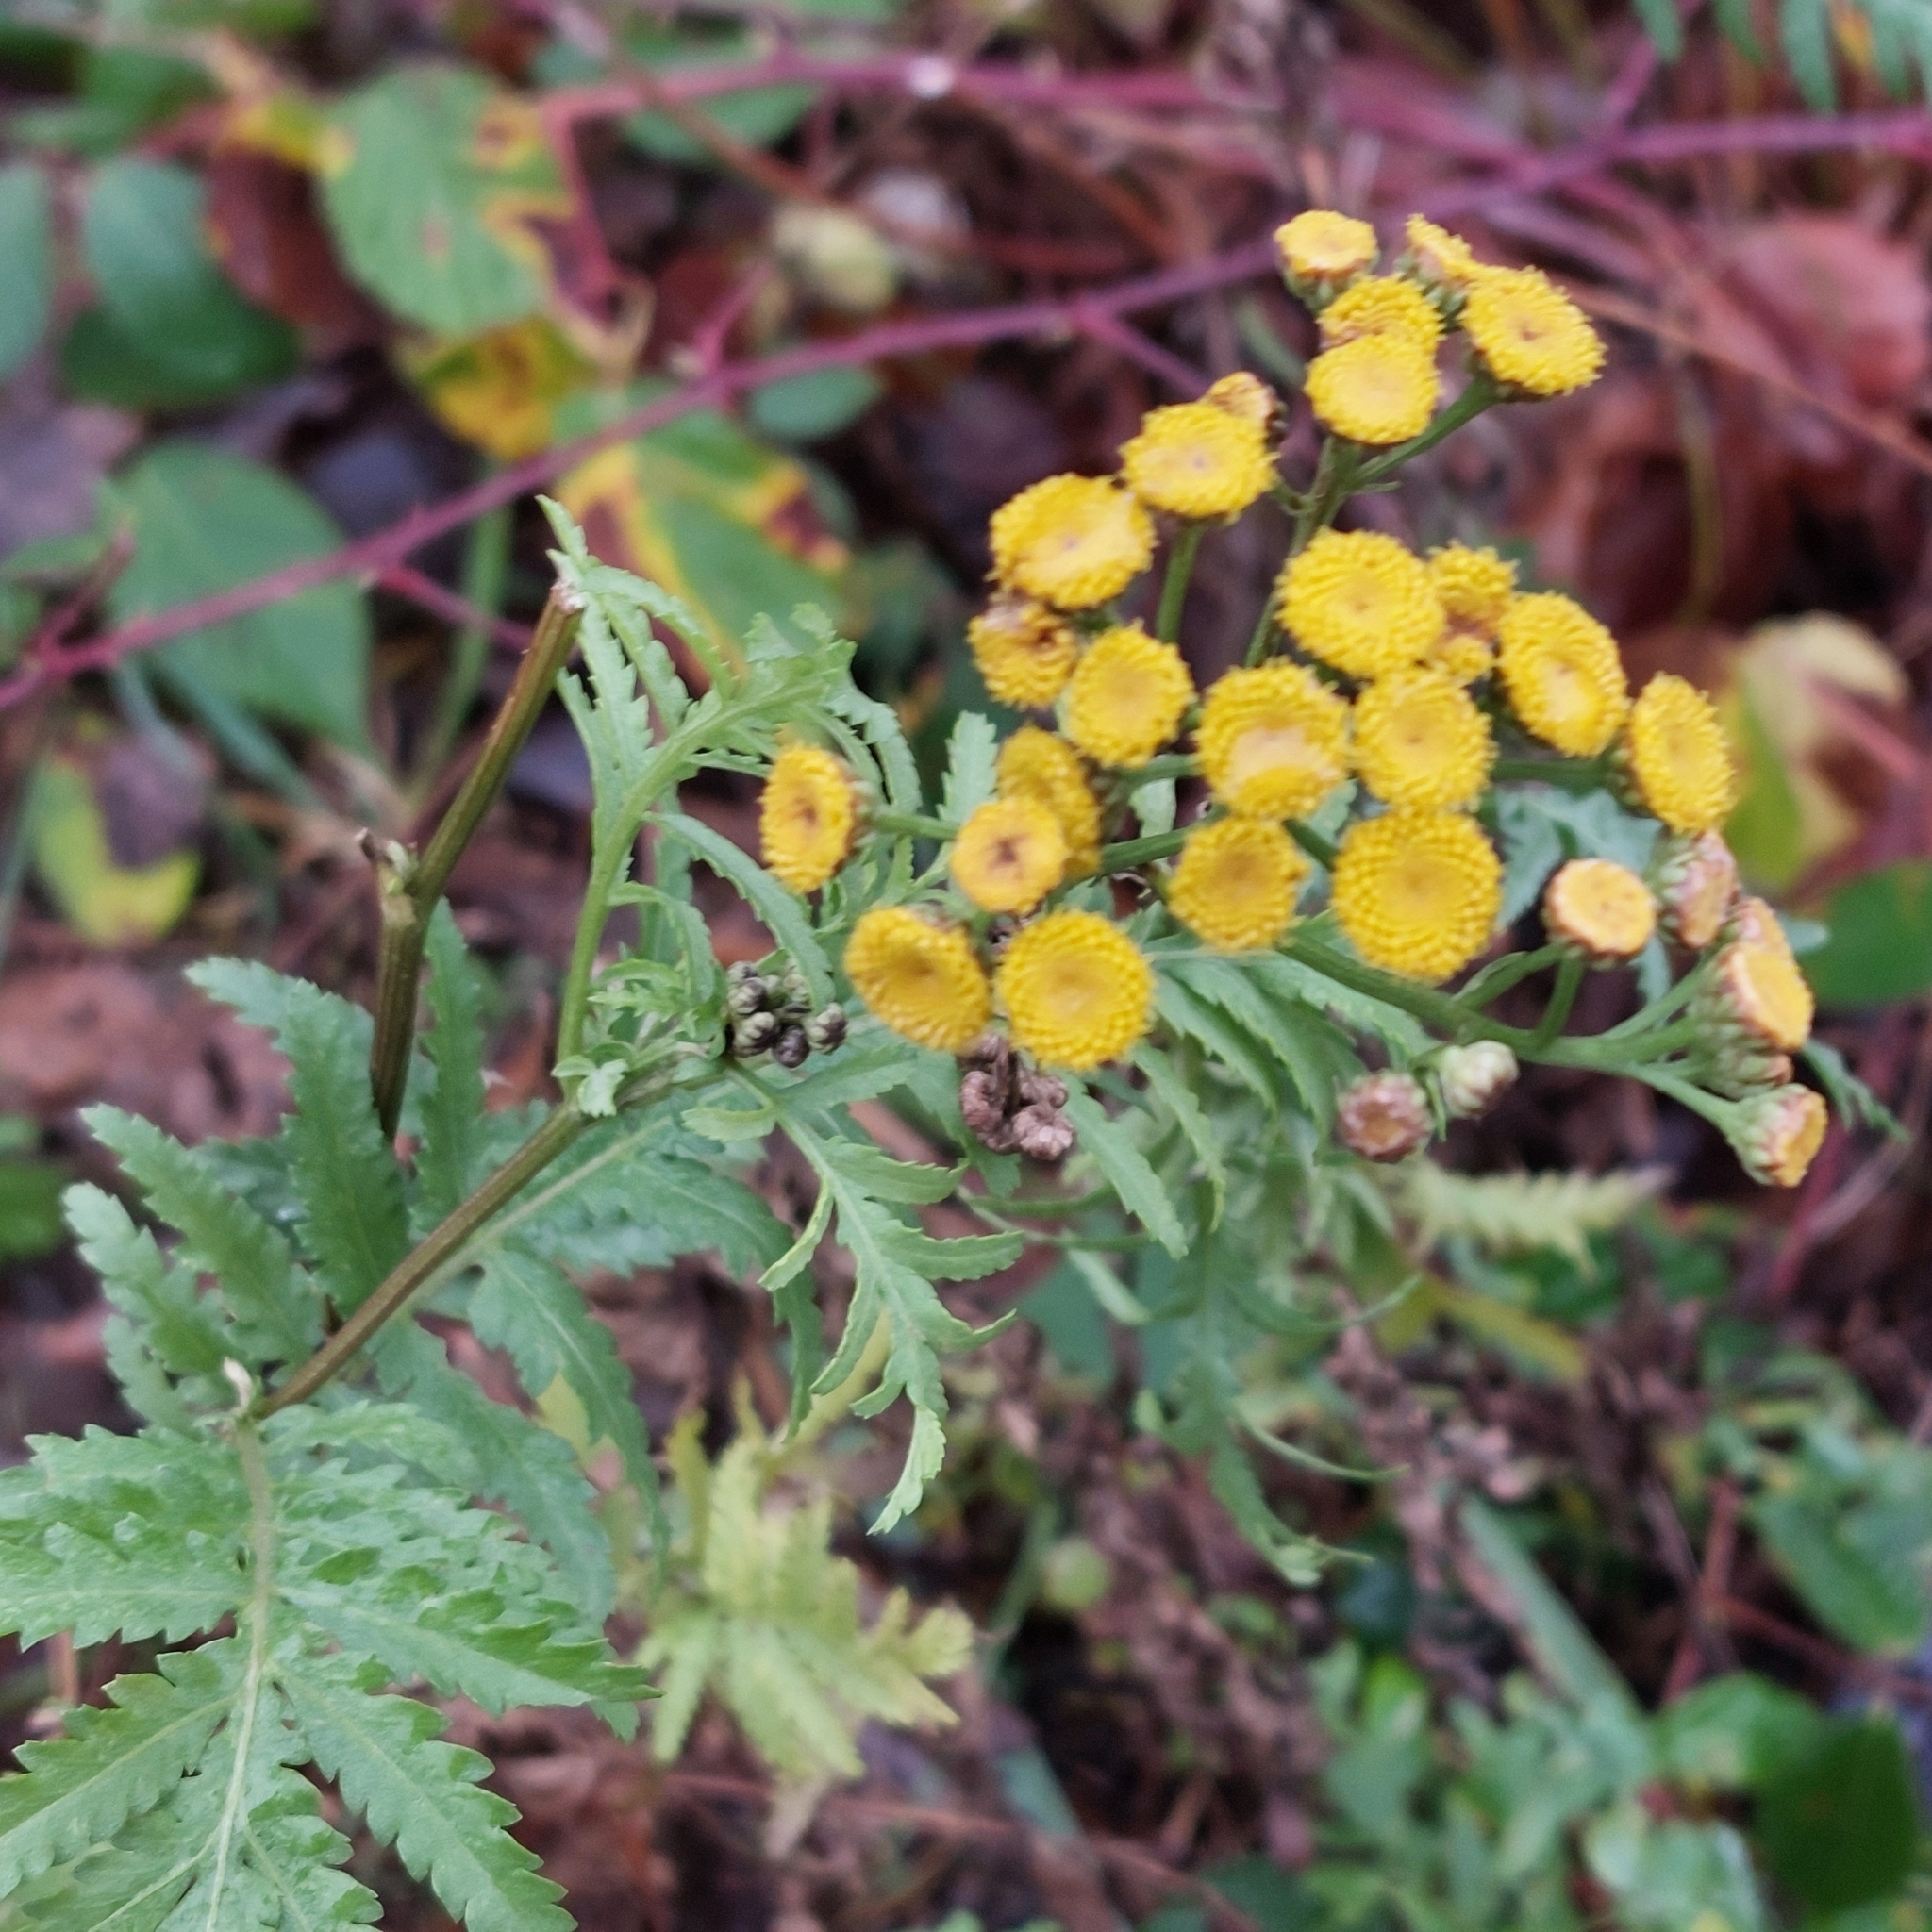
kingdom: Plantae
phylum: Tracheophyta
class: Magnoliopsida
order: Asterales
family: Asteraceae
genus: Tanacetum
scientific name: Tanacetum vulgare
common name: Common tansy
